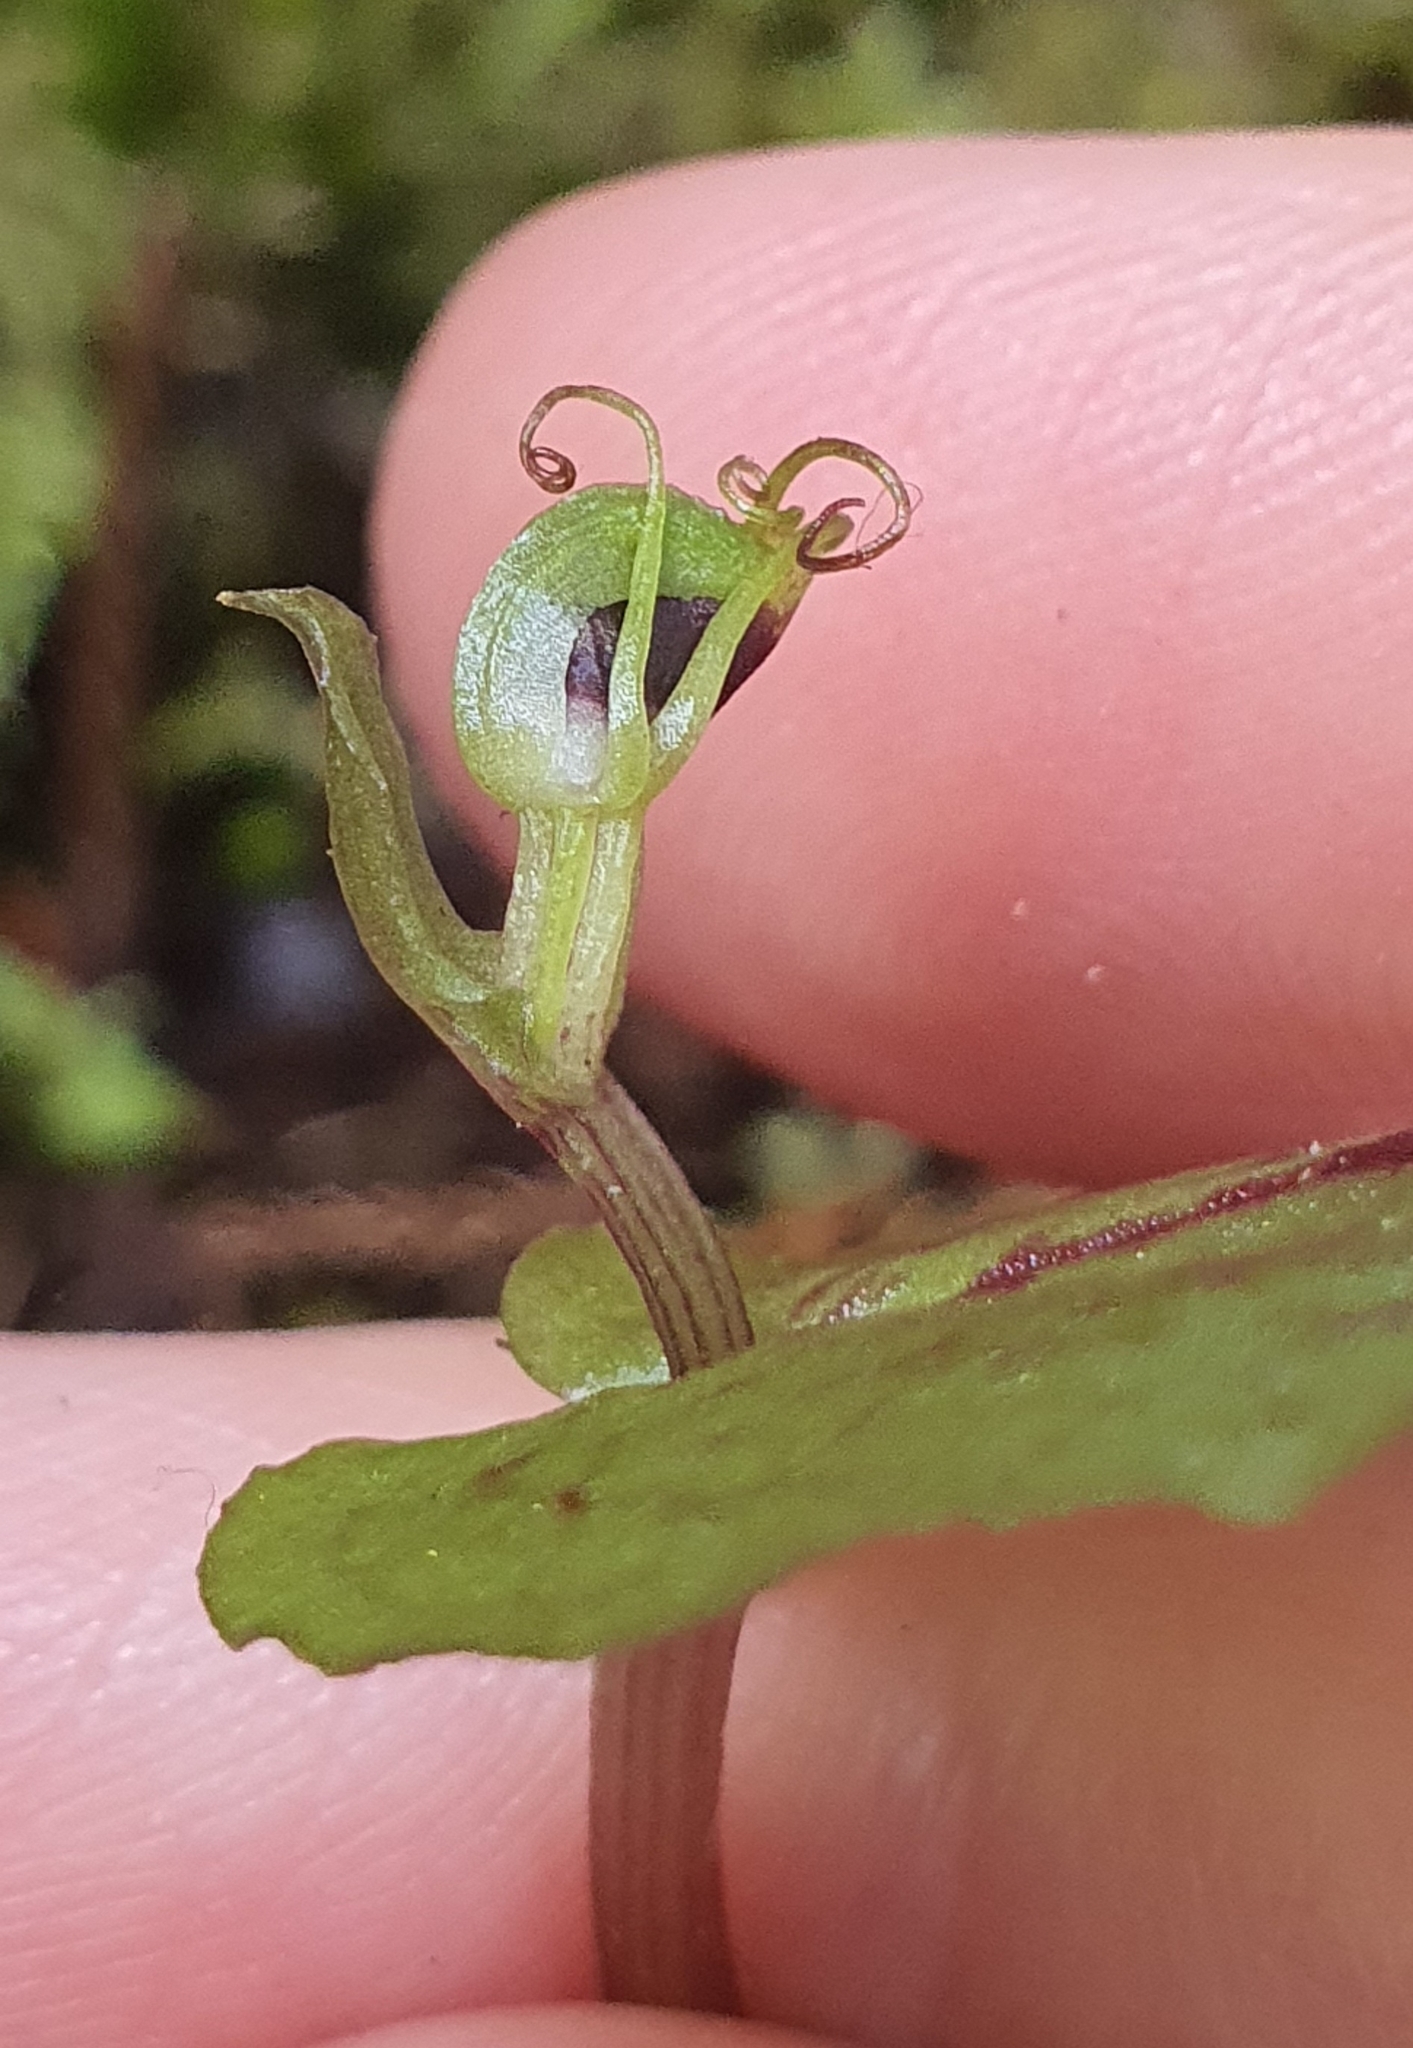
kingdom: Plantae
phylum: Tracheophyta
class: Liliopsida
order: Asparagales
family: Orchidaceae
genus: Corybas
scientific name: Corybas oblongus
